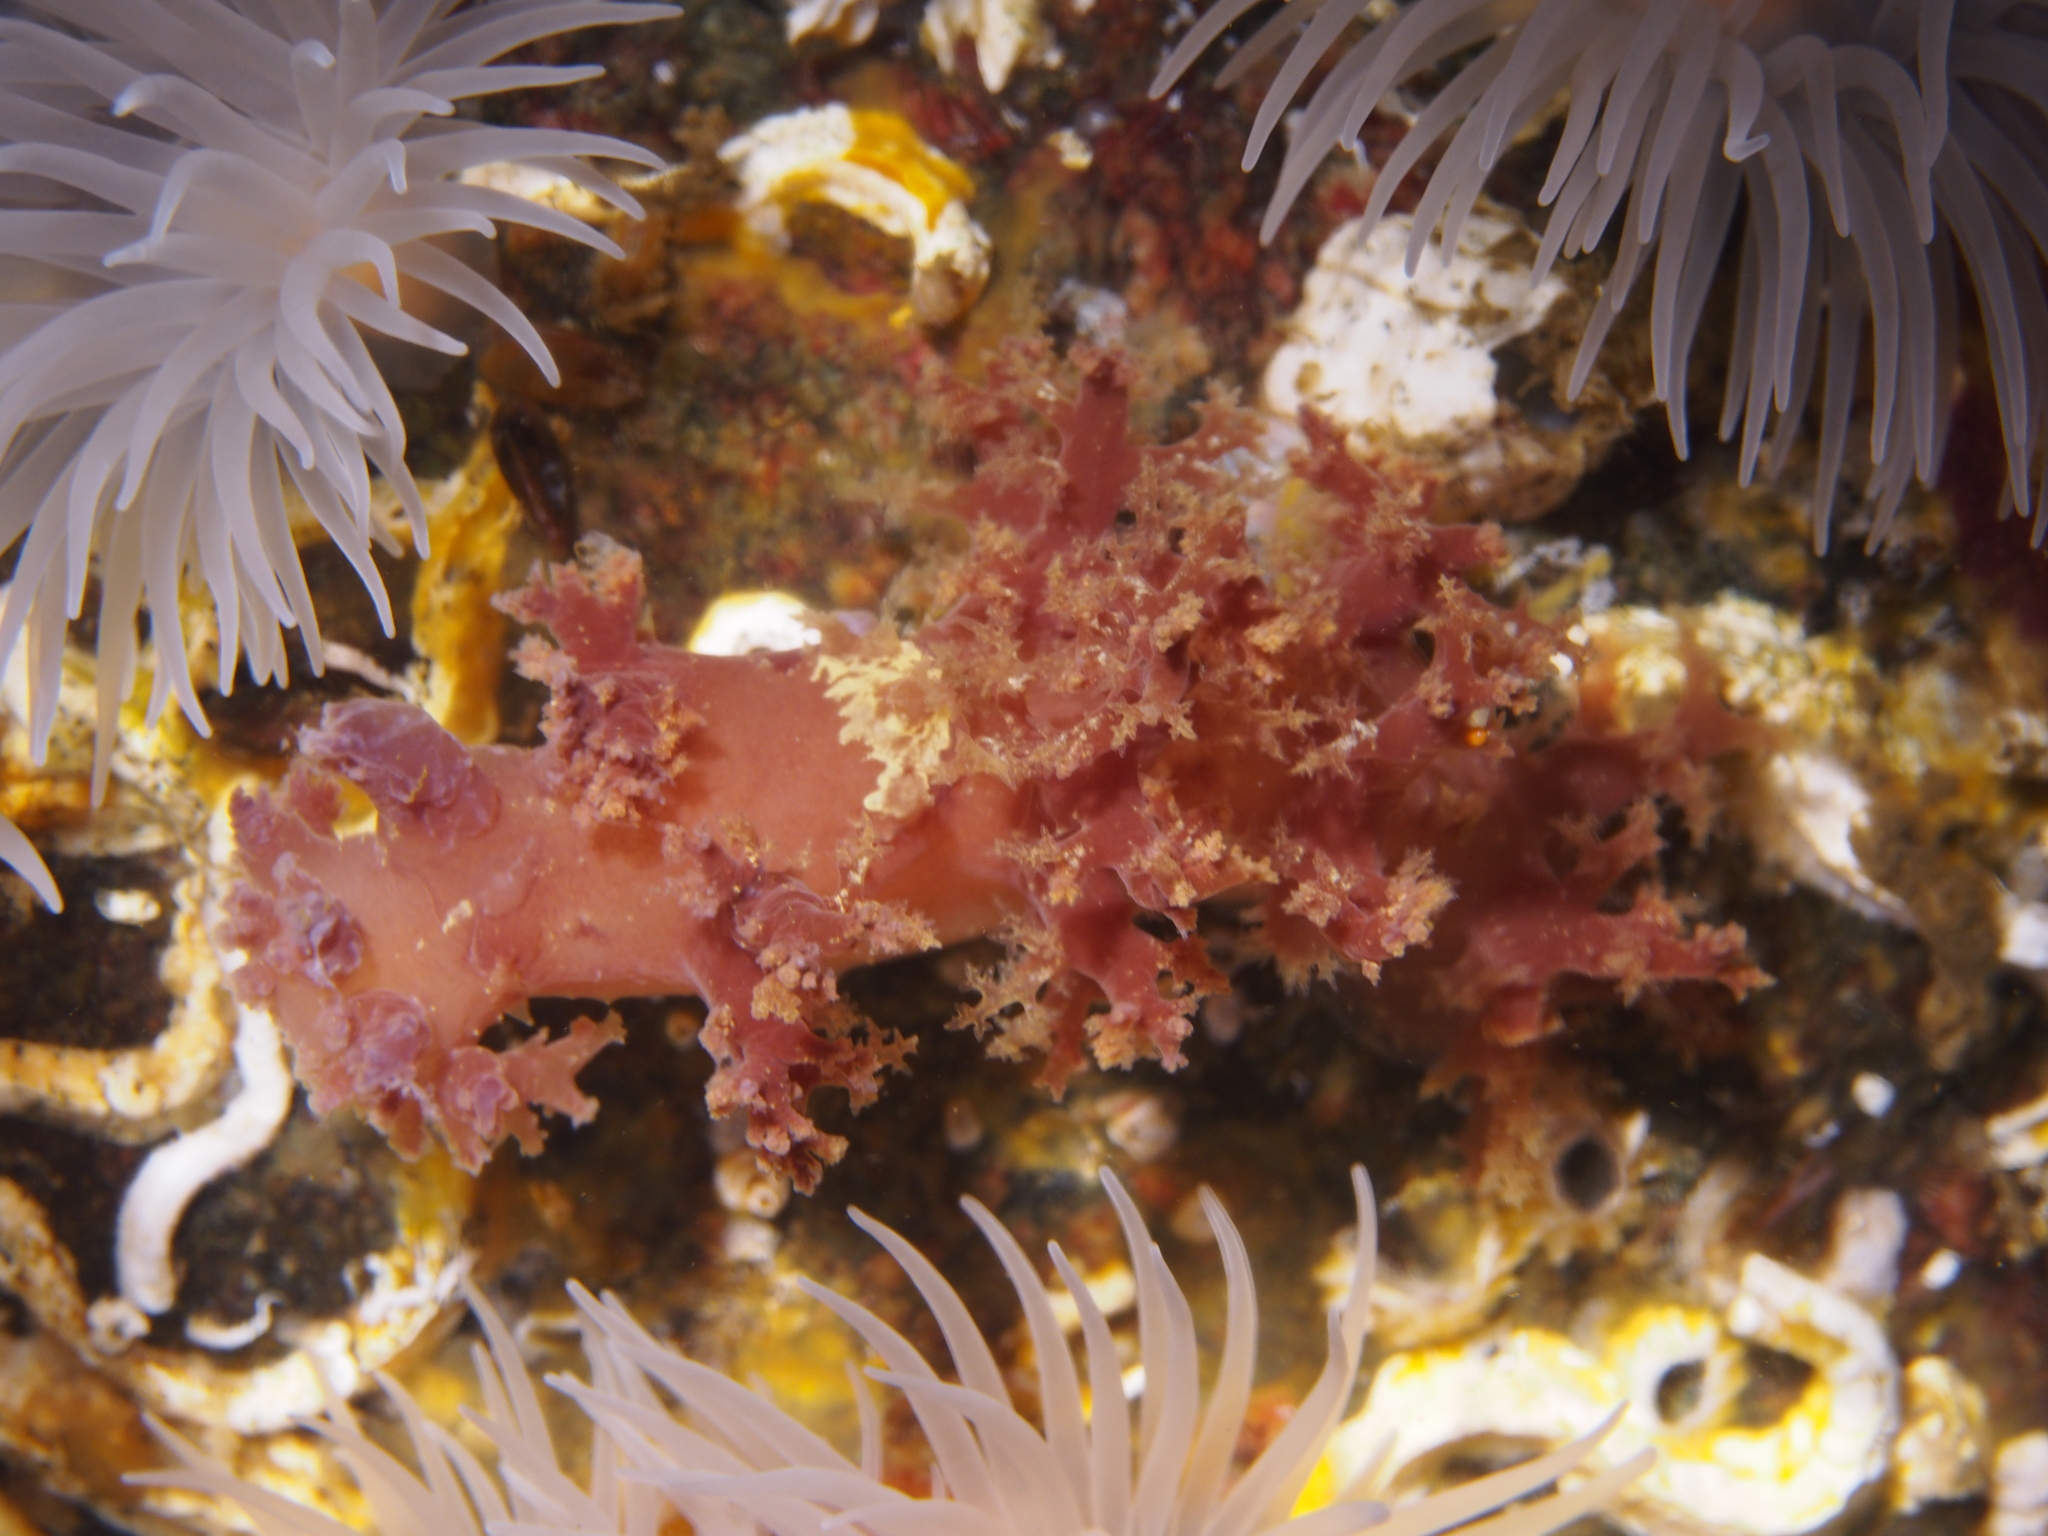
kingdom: Animalia
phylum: Mollusca
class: Gastropoda
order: Nudibranchia
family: Dendronotidae
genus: Dendronotus
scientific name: Dendronotus lacteus
